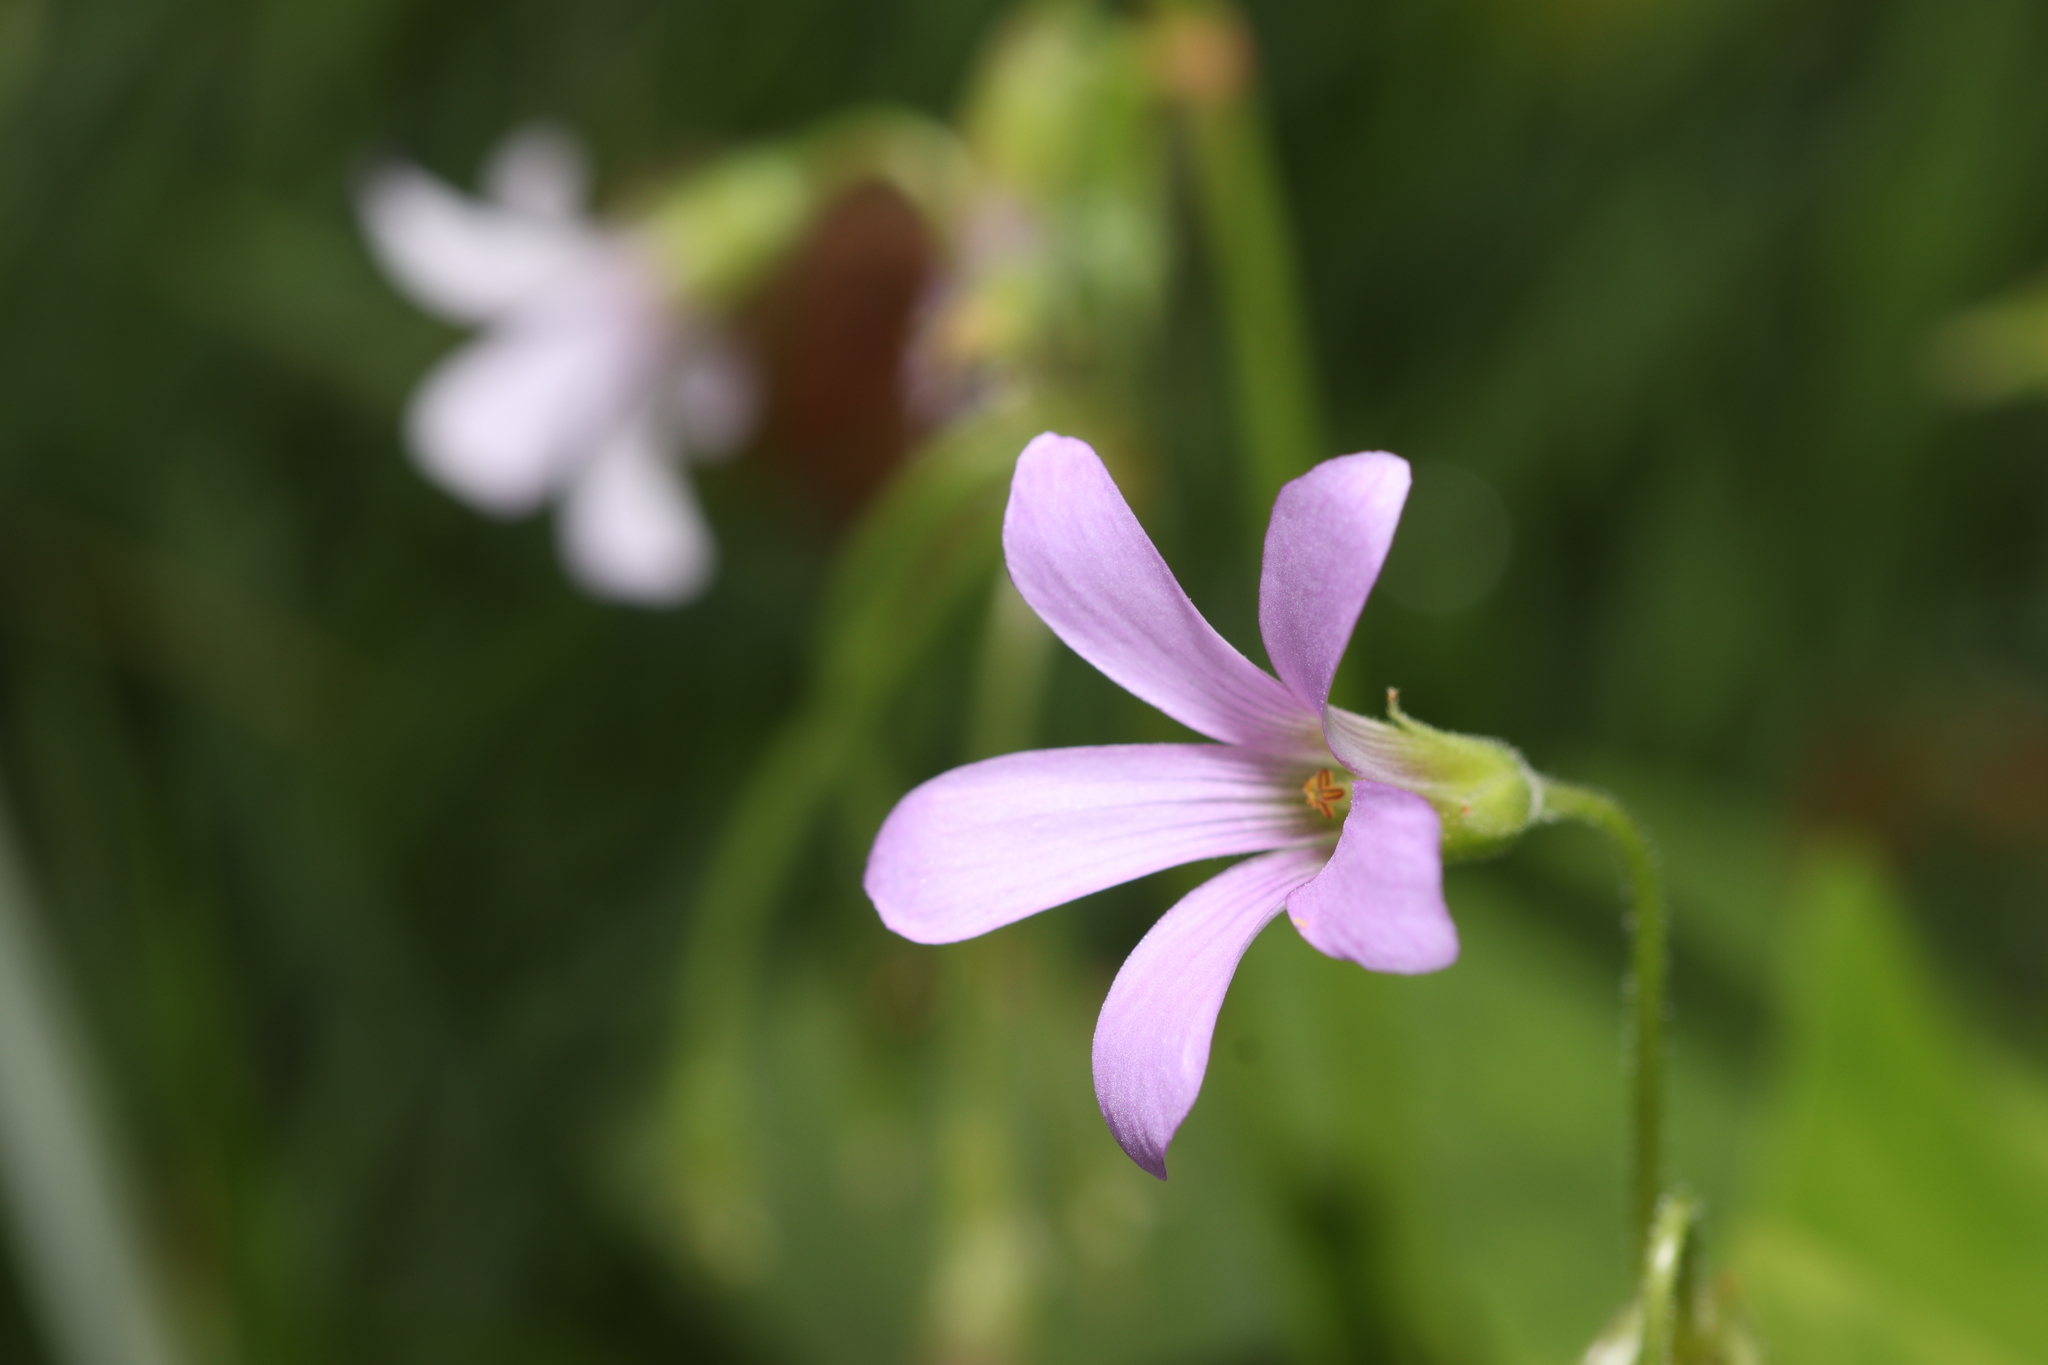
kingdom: Plantae
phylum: Tracheophyta
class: Magnoliopsida
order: Oxalidales
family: Oxalidaceae
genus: Oxalis
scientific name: Oxalis debilis
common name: Large-flowered pink-sorrel
